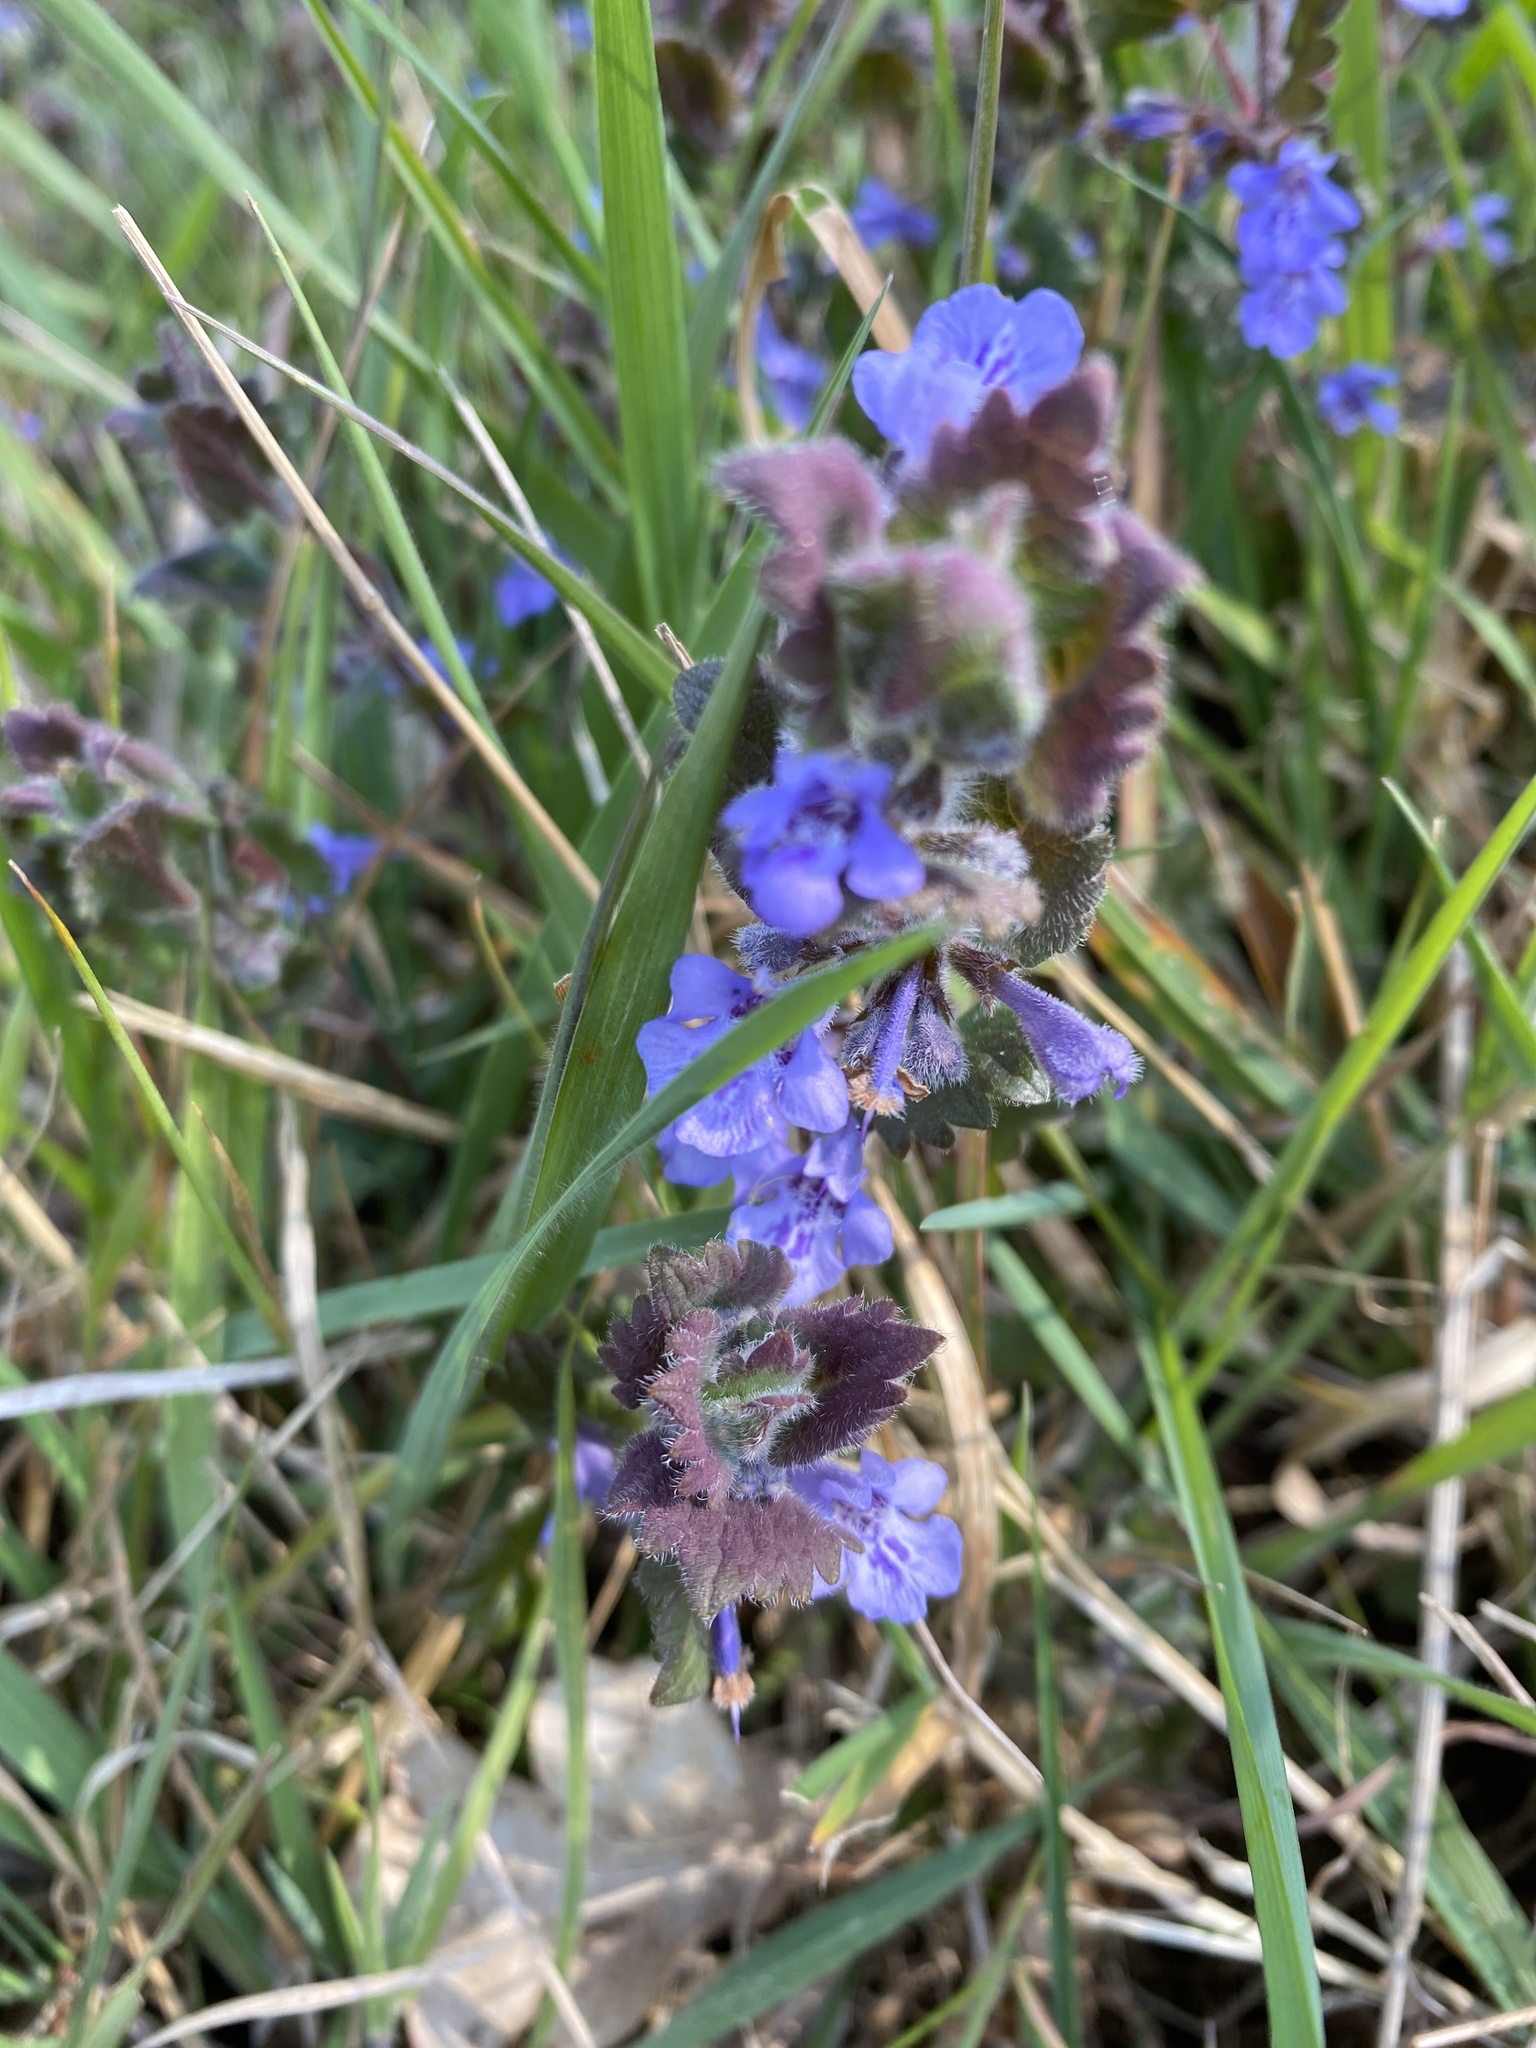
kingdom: Plantae
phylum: Tracheophyta
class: Magnoliopsida
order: Lamiales
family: Lamiaceae
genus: Glechoma
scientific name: Glechoma hederacea
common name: Ground ivy
